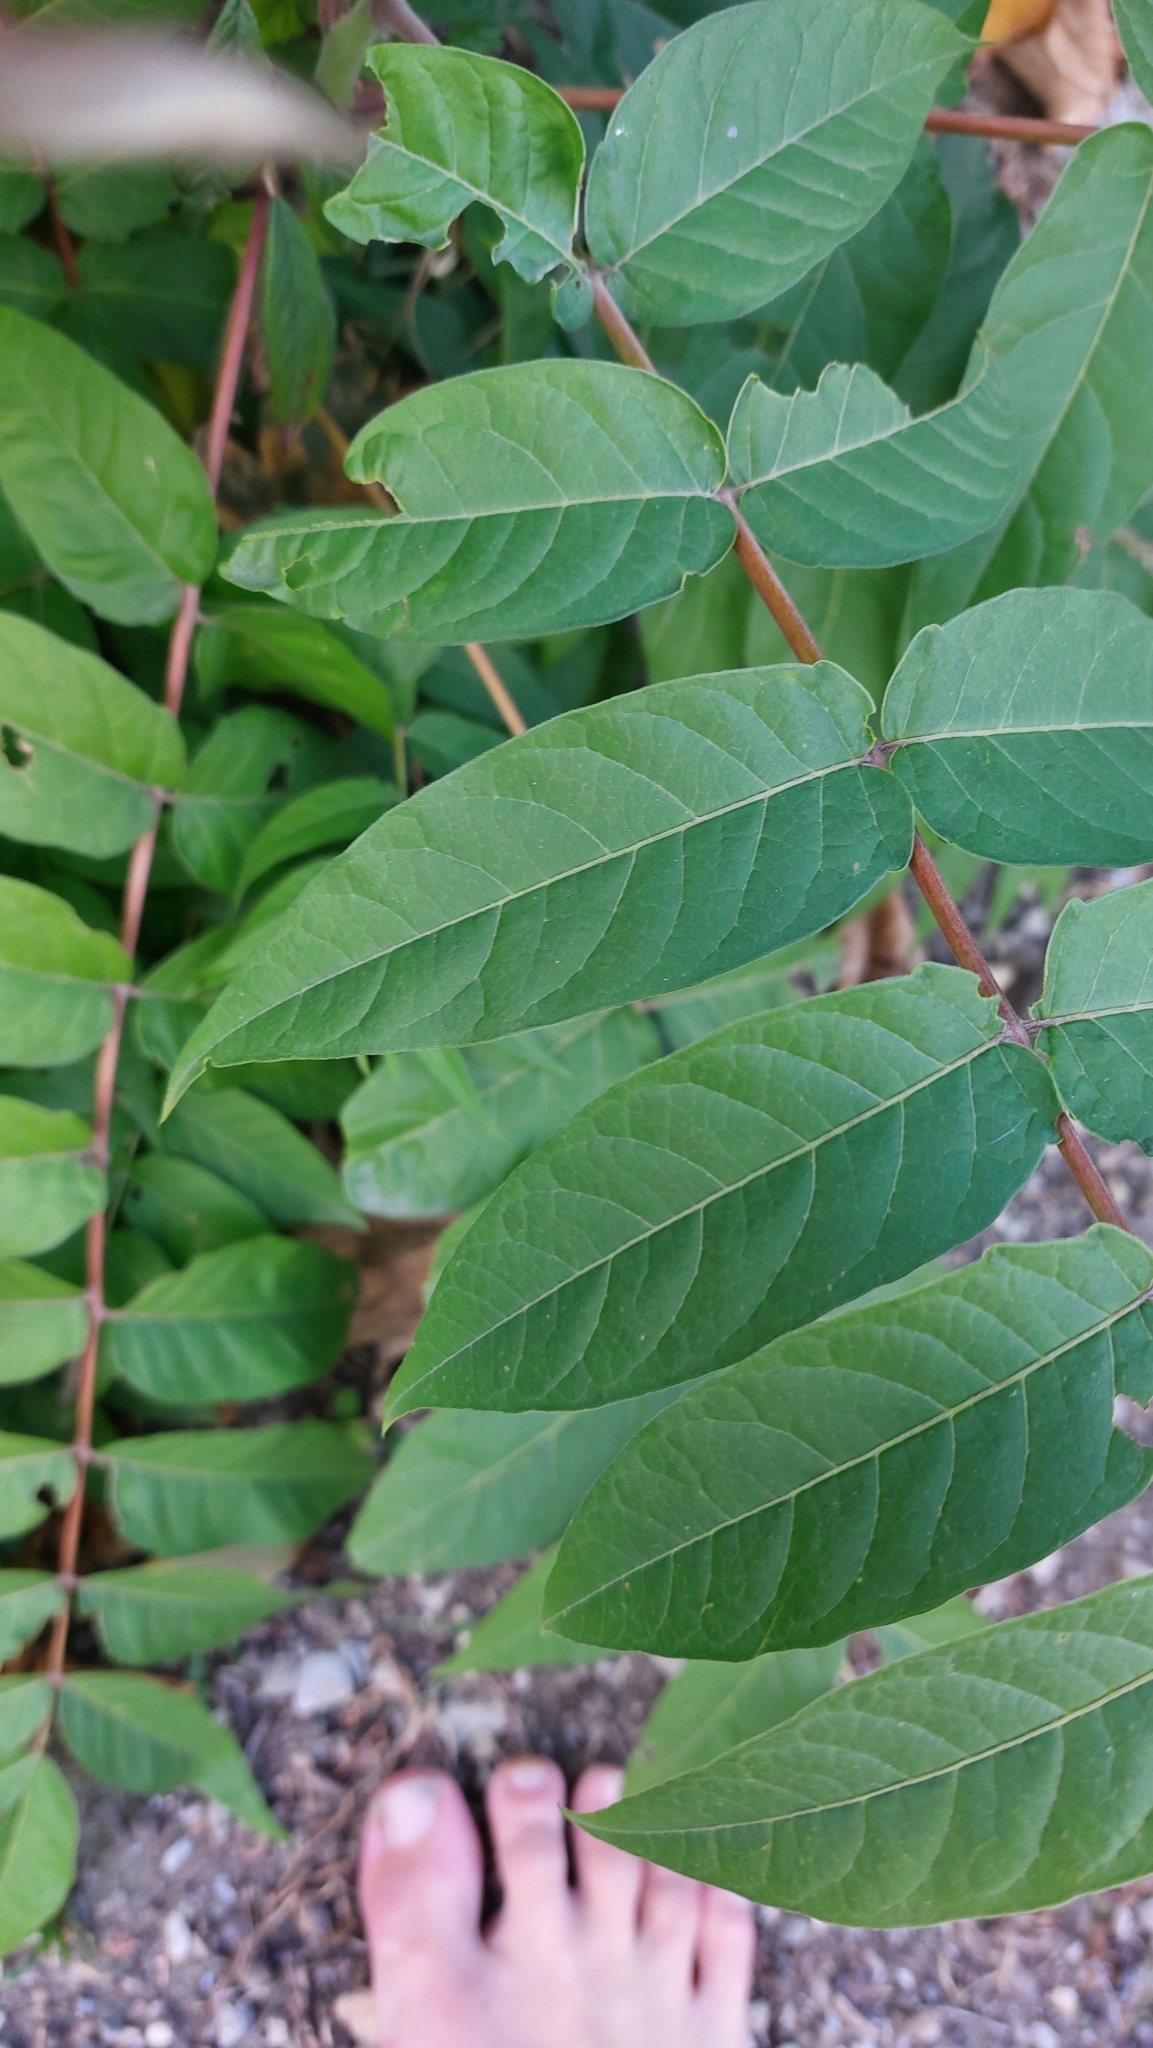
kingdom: Plantae
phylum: Tracheophyta
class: Magnoliopsida
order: Sapindales
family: Simaroubaceae
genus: Ailanthus
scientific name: Ailanthus altissima
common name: Tree-of-heaven
